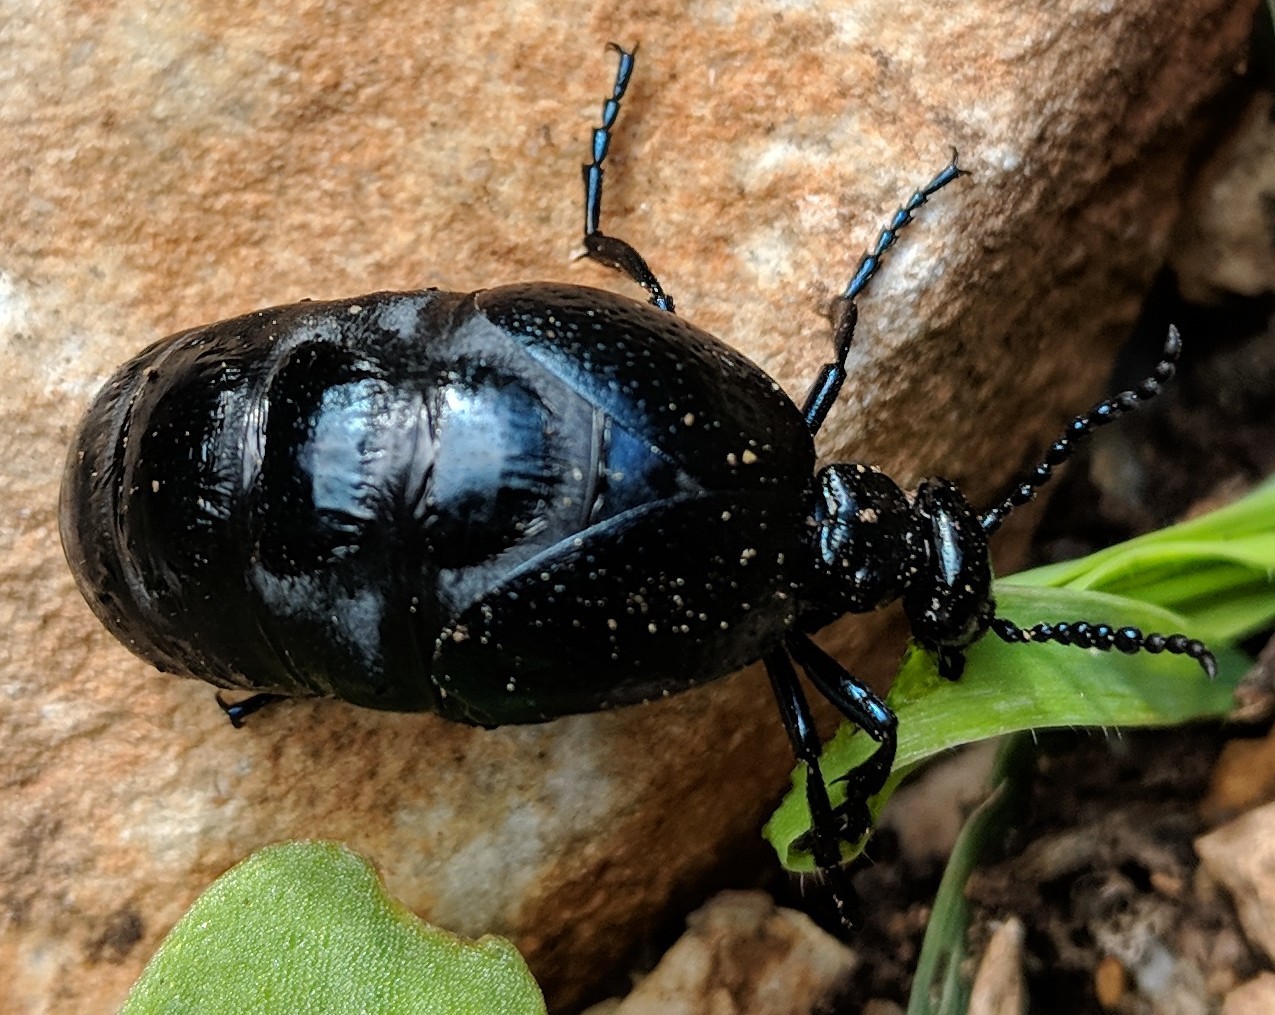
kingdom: Animalia
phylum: Arthropoda
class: Insecta
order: Coleoptera
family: Meloidae
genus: Meloe
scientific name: Meloe autumnalis
